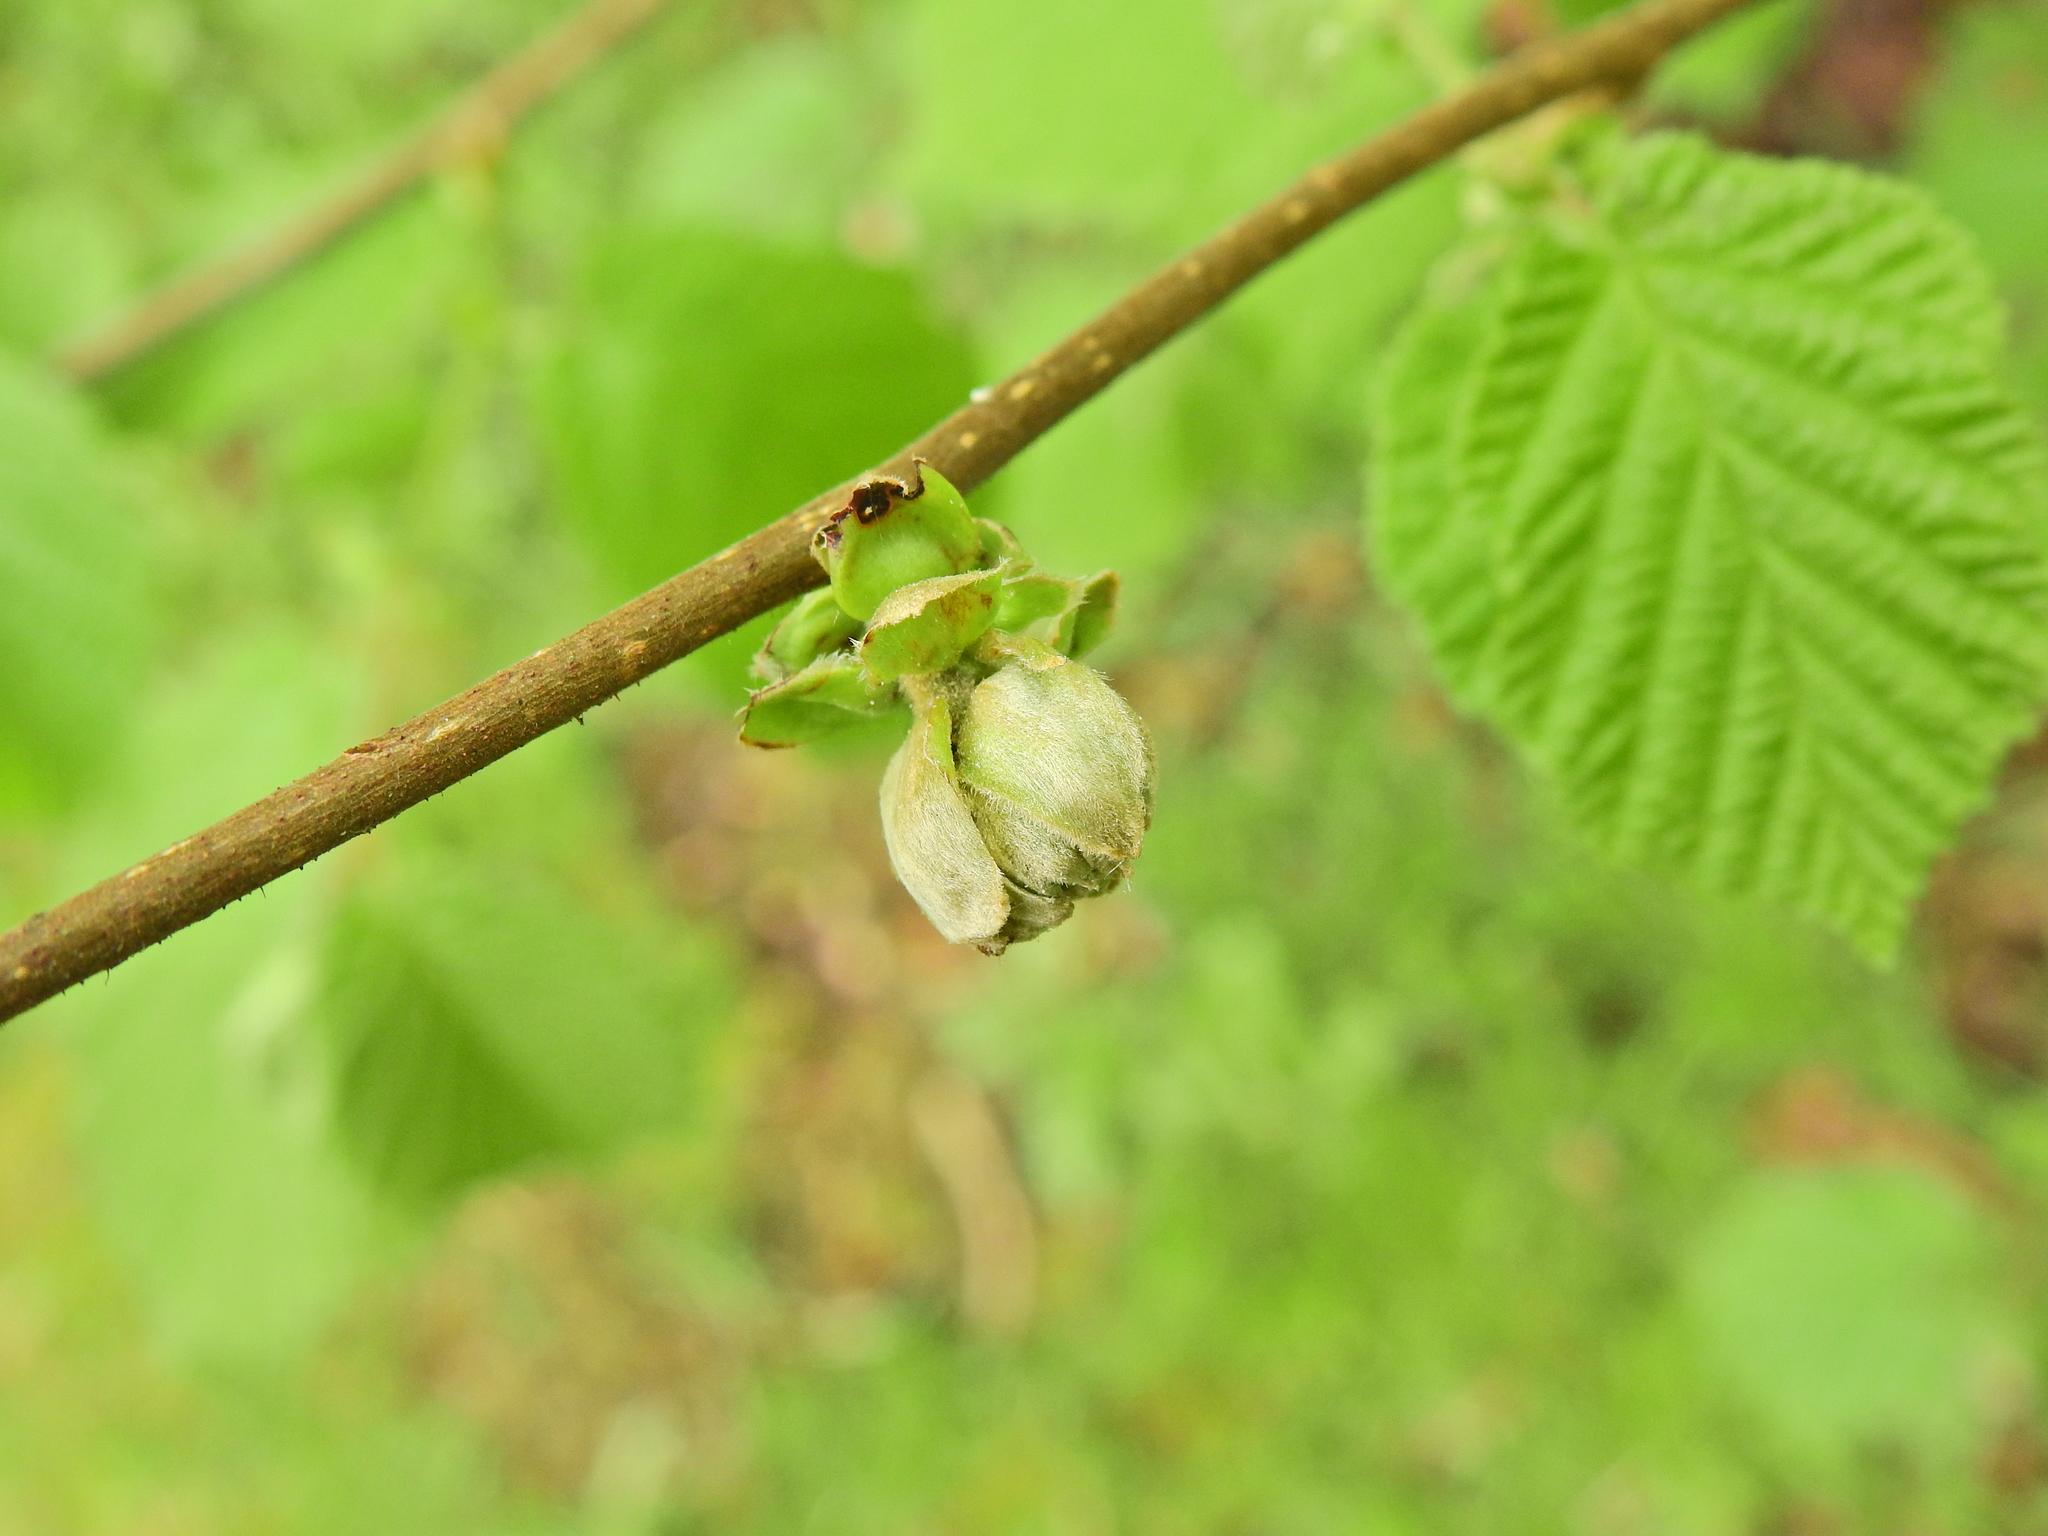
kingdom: Animalia
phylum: Arthropoda
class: Arachnida
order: Trombidiformes
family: Phytoptidae
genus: Phytoptus
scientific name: Phytoptus avellanae
